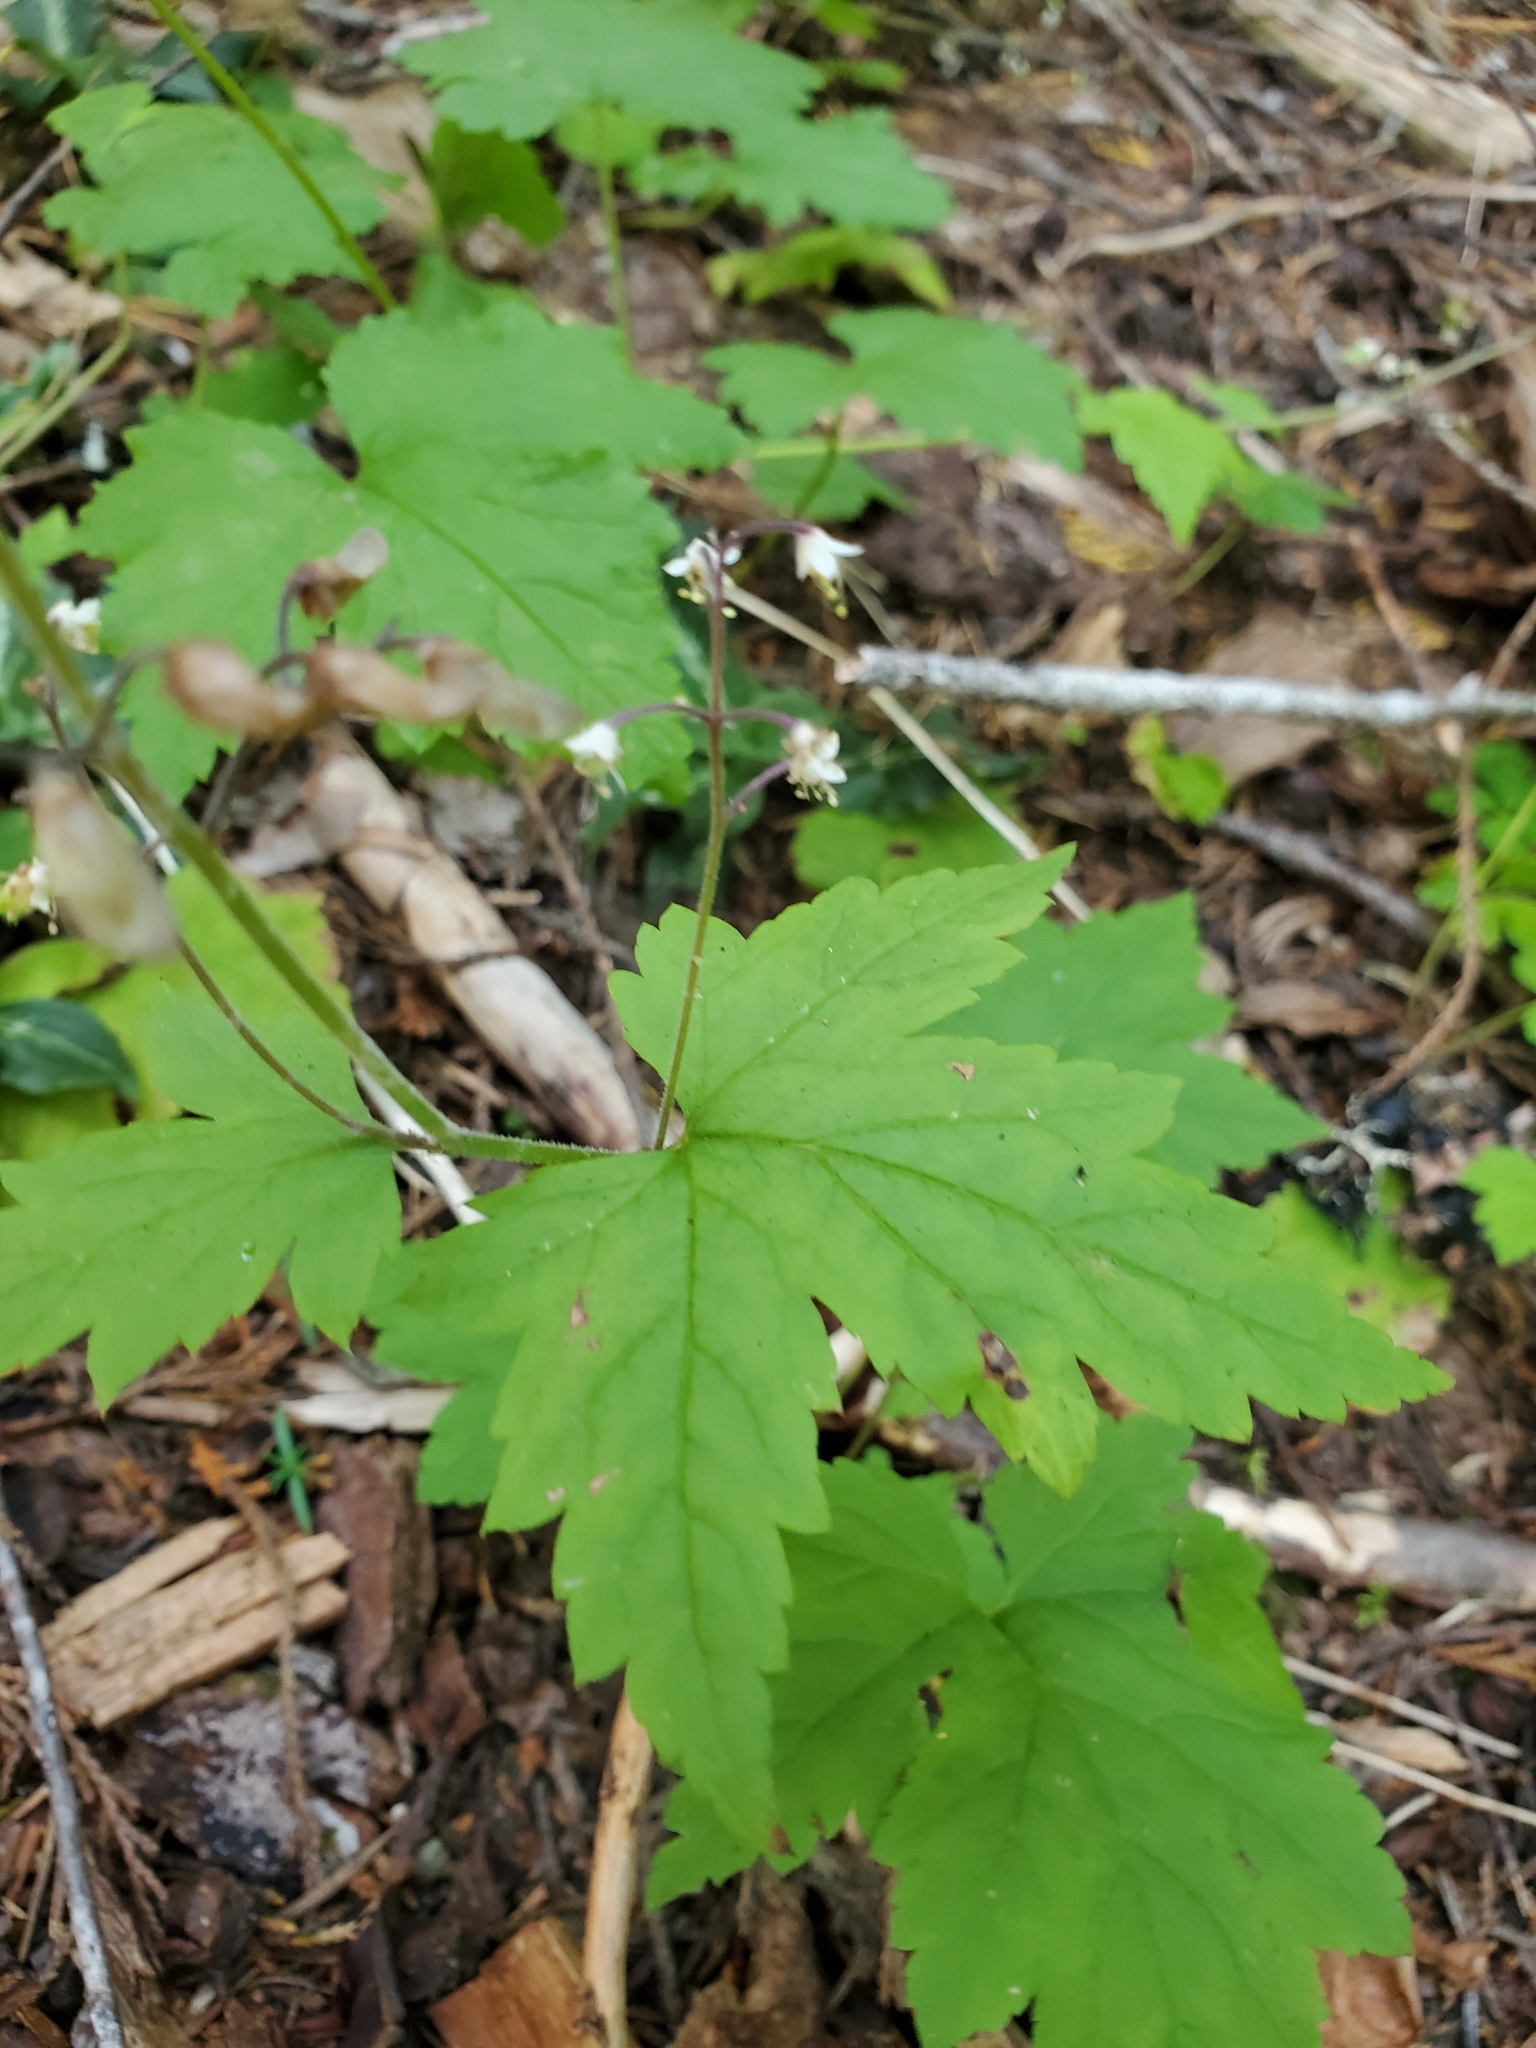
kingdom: Plantae
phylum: Tracheophyta
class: Magnoliopsida
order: Saxifragales
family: Saxifragaceae
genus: Tiarella
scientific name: Tiarella trifoliata
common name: Sugar-scoop
